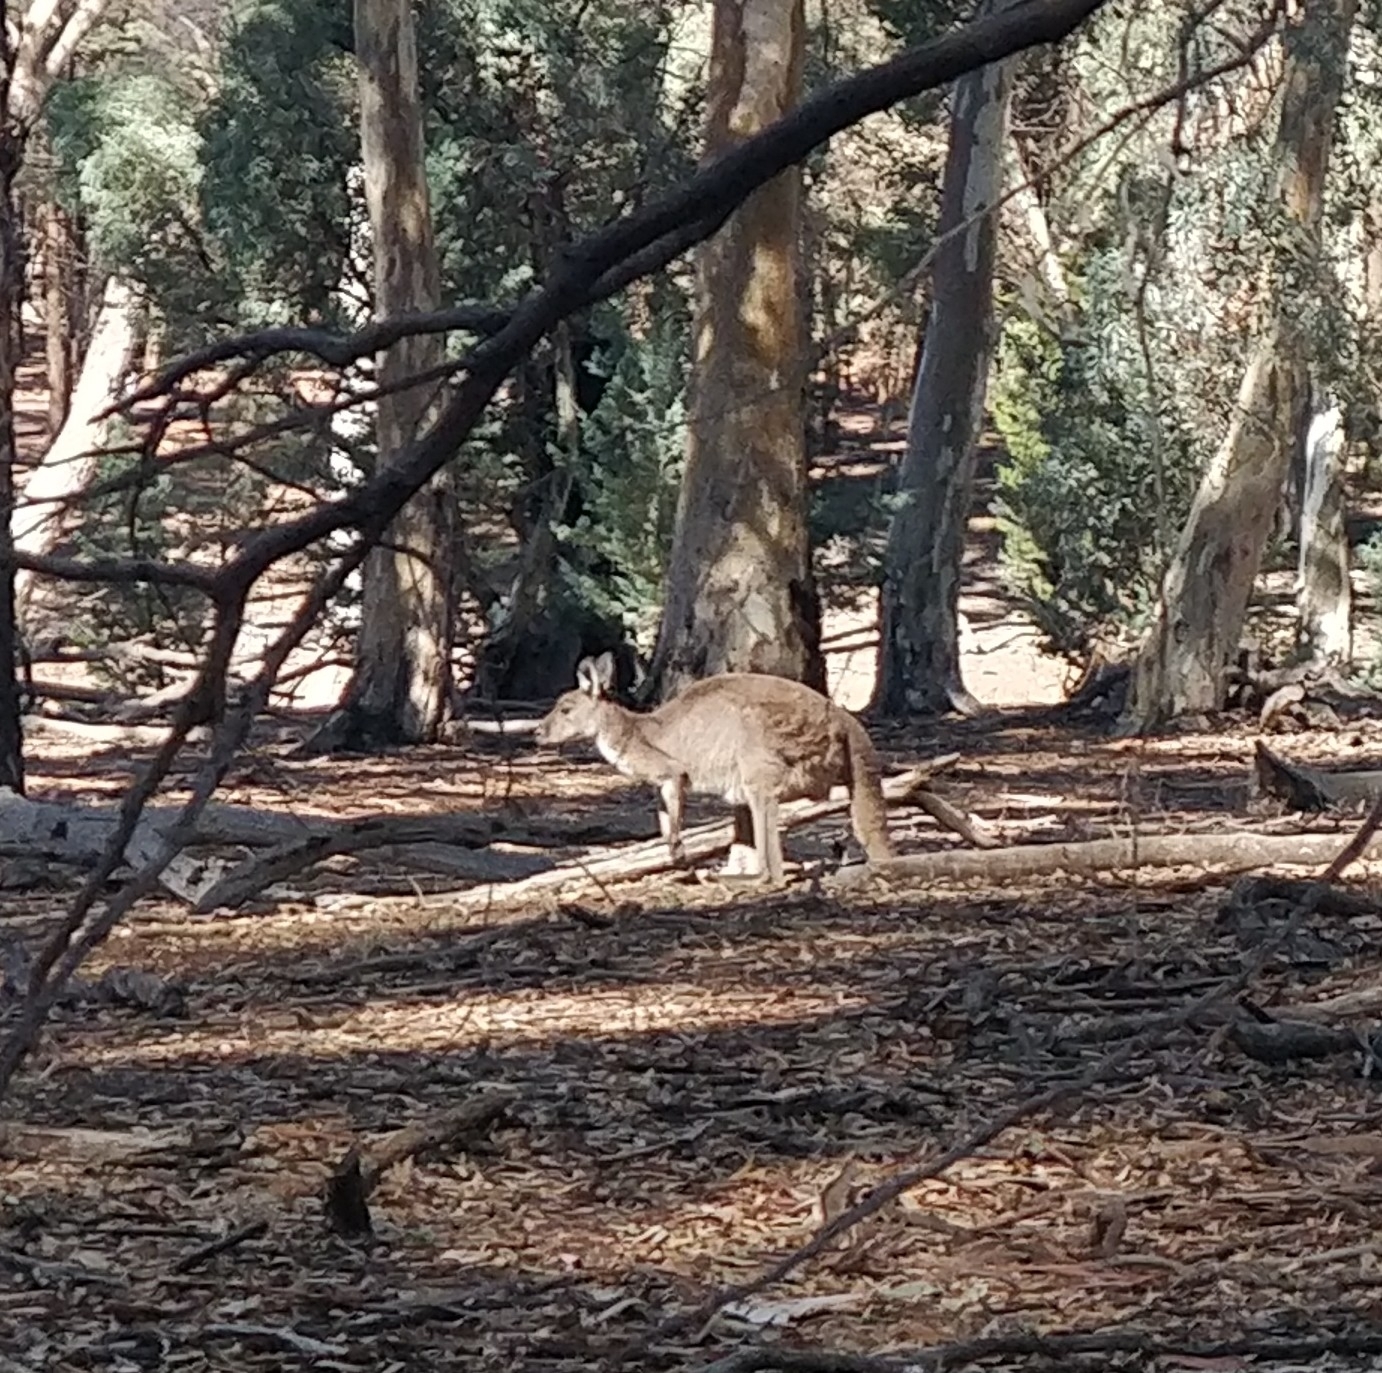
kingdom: Animalia
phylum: Chordata
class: Mammalia
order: Diprotodontia
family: Macropodidae
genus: Macropus
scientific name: Macropus fuliginosus
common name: Western grey kangaroo
